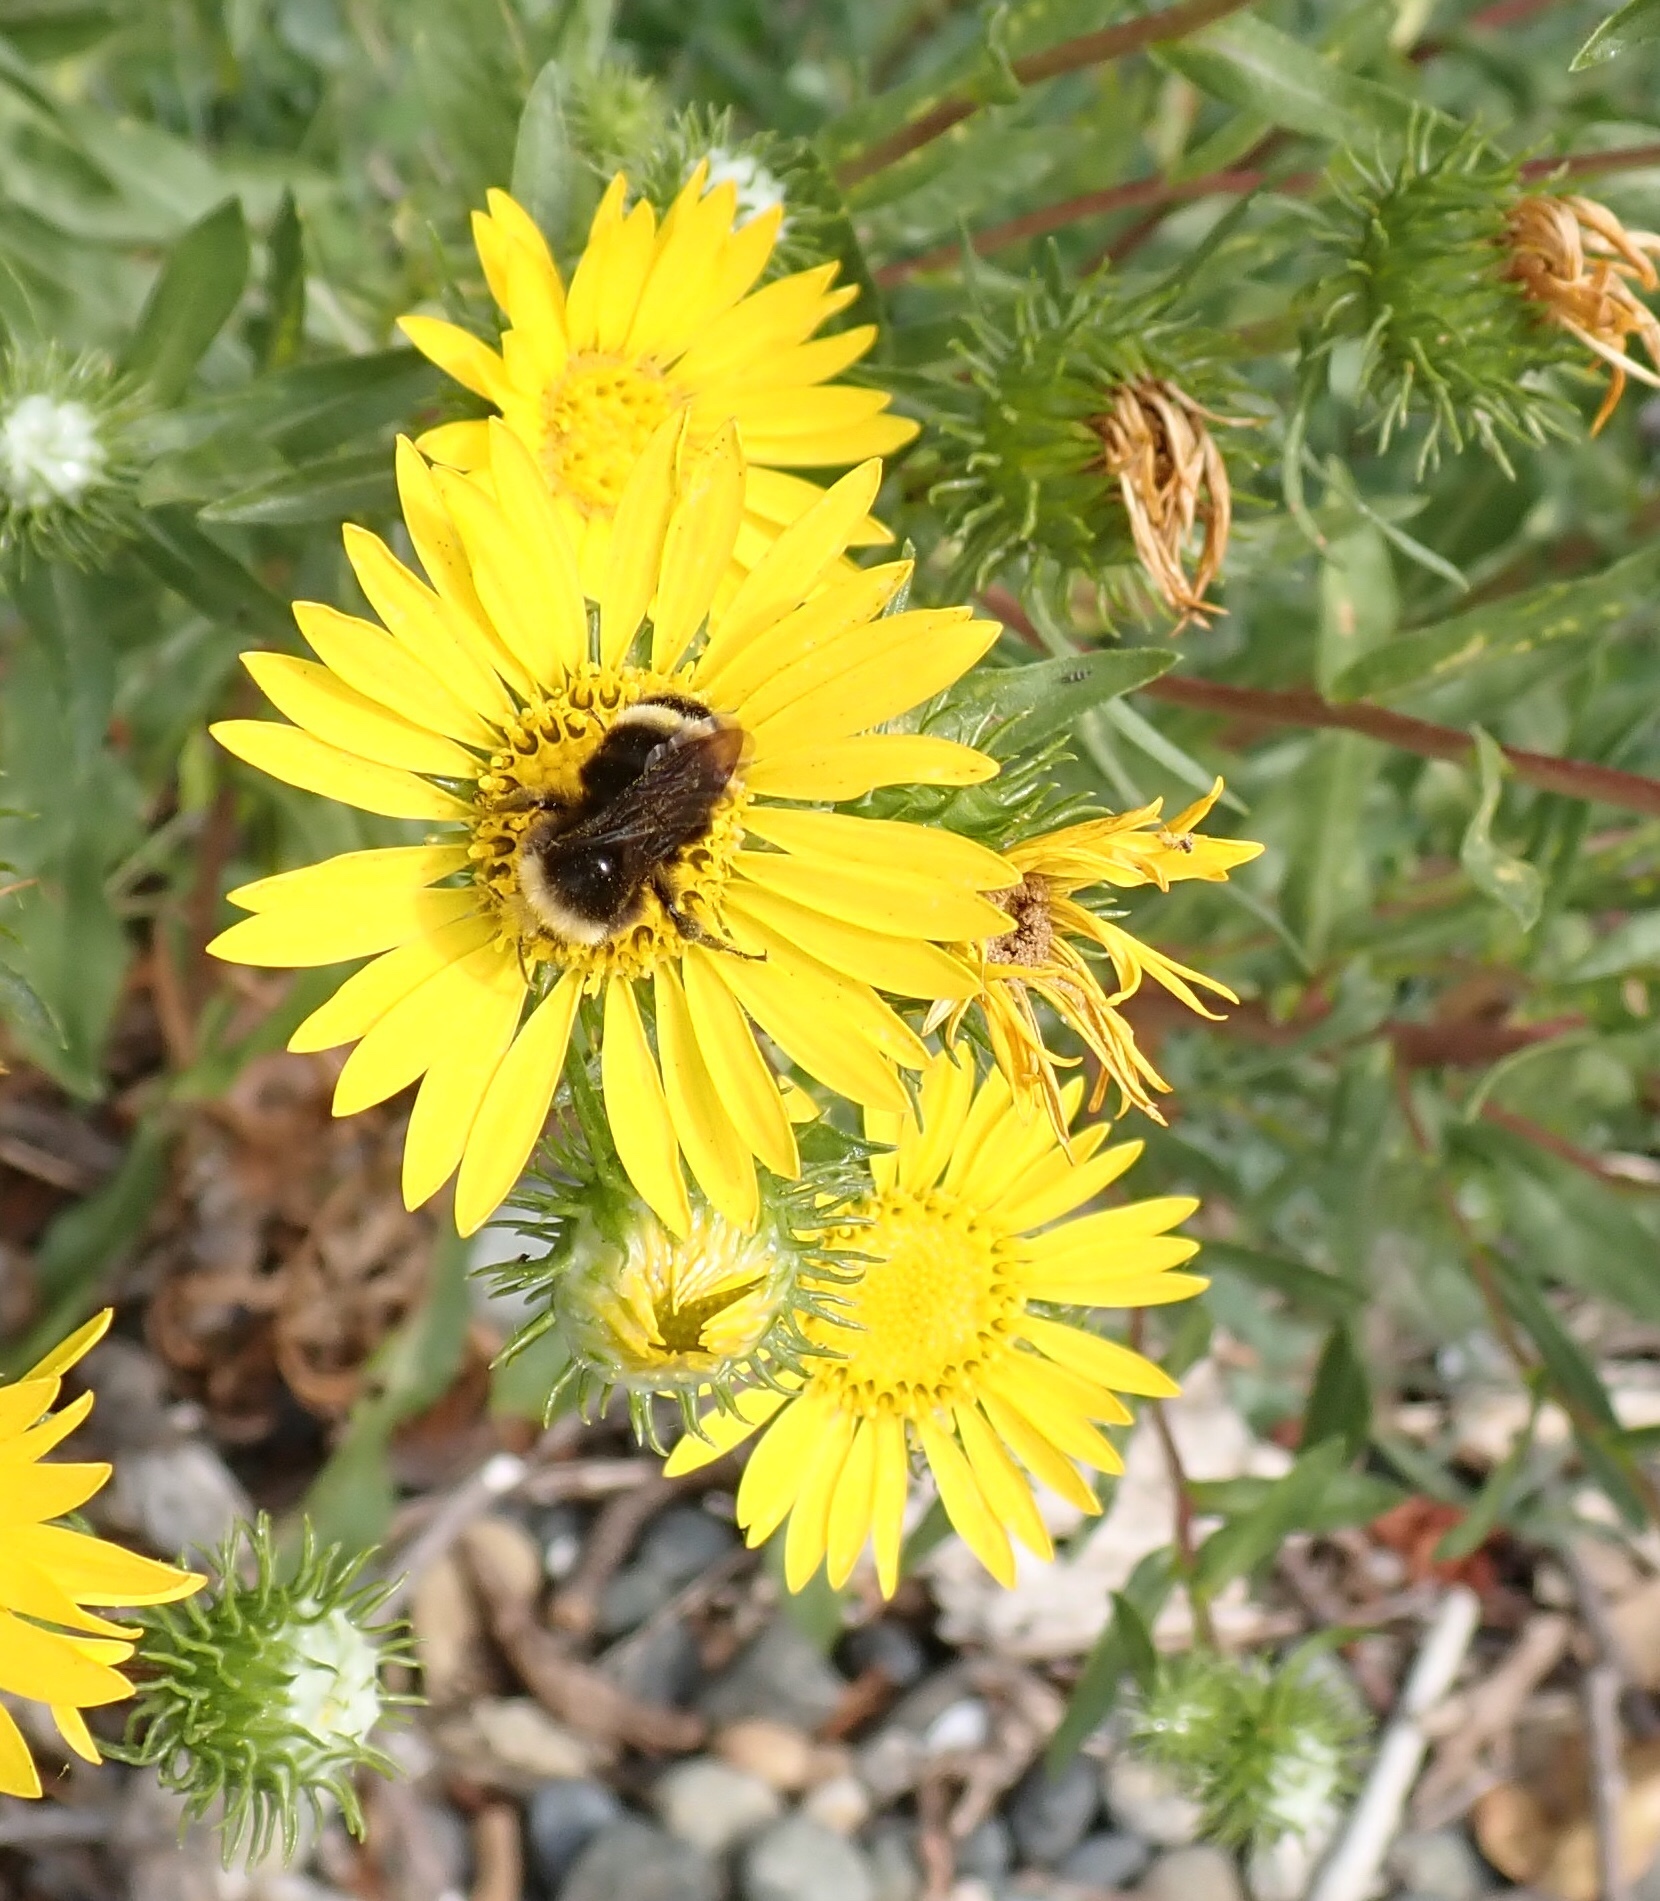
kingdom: Animalia
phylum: Arthropoda
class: Insecta
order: Hymenoptera
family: Apidae
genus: Bombus
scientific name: Bombus vosnesenskii
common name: Vosnesensky bumble bee
